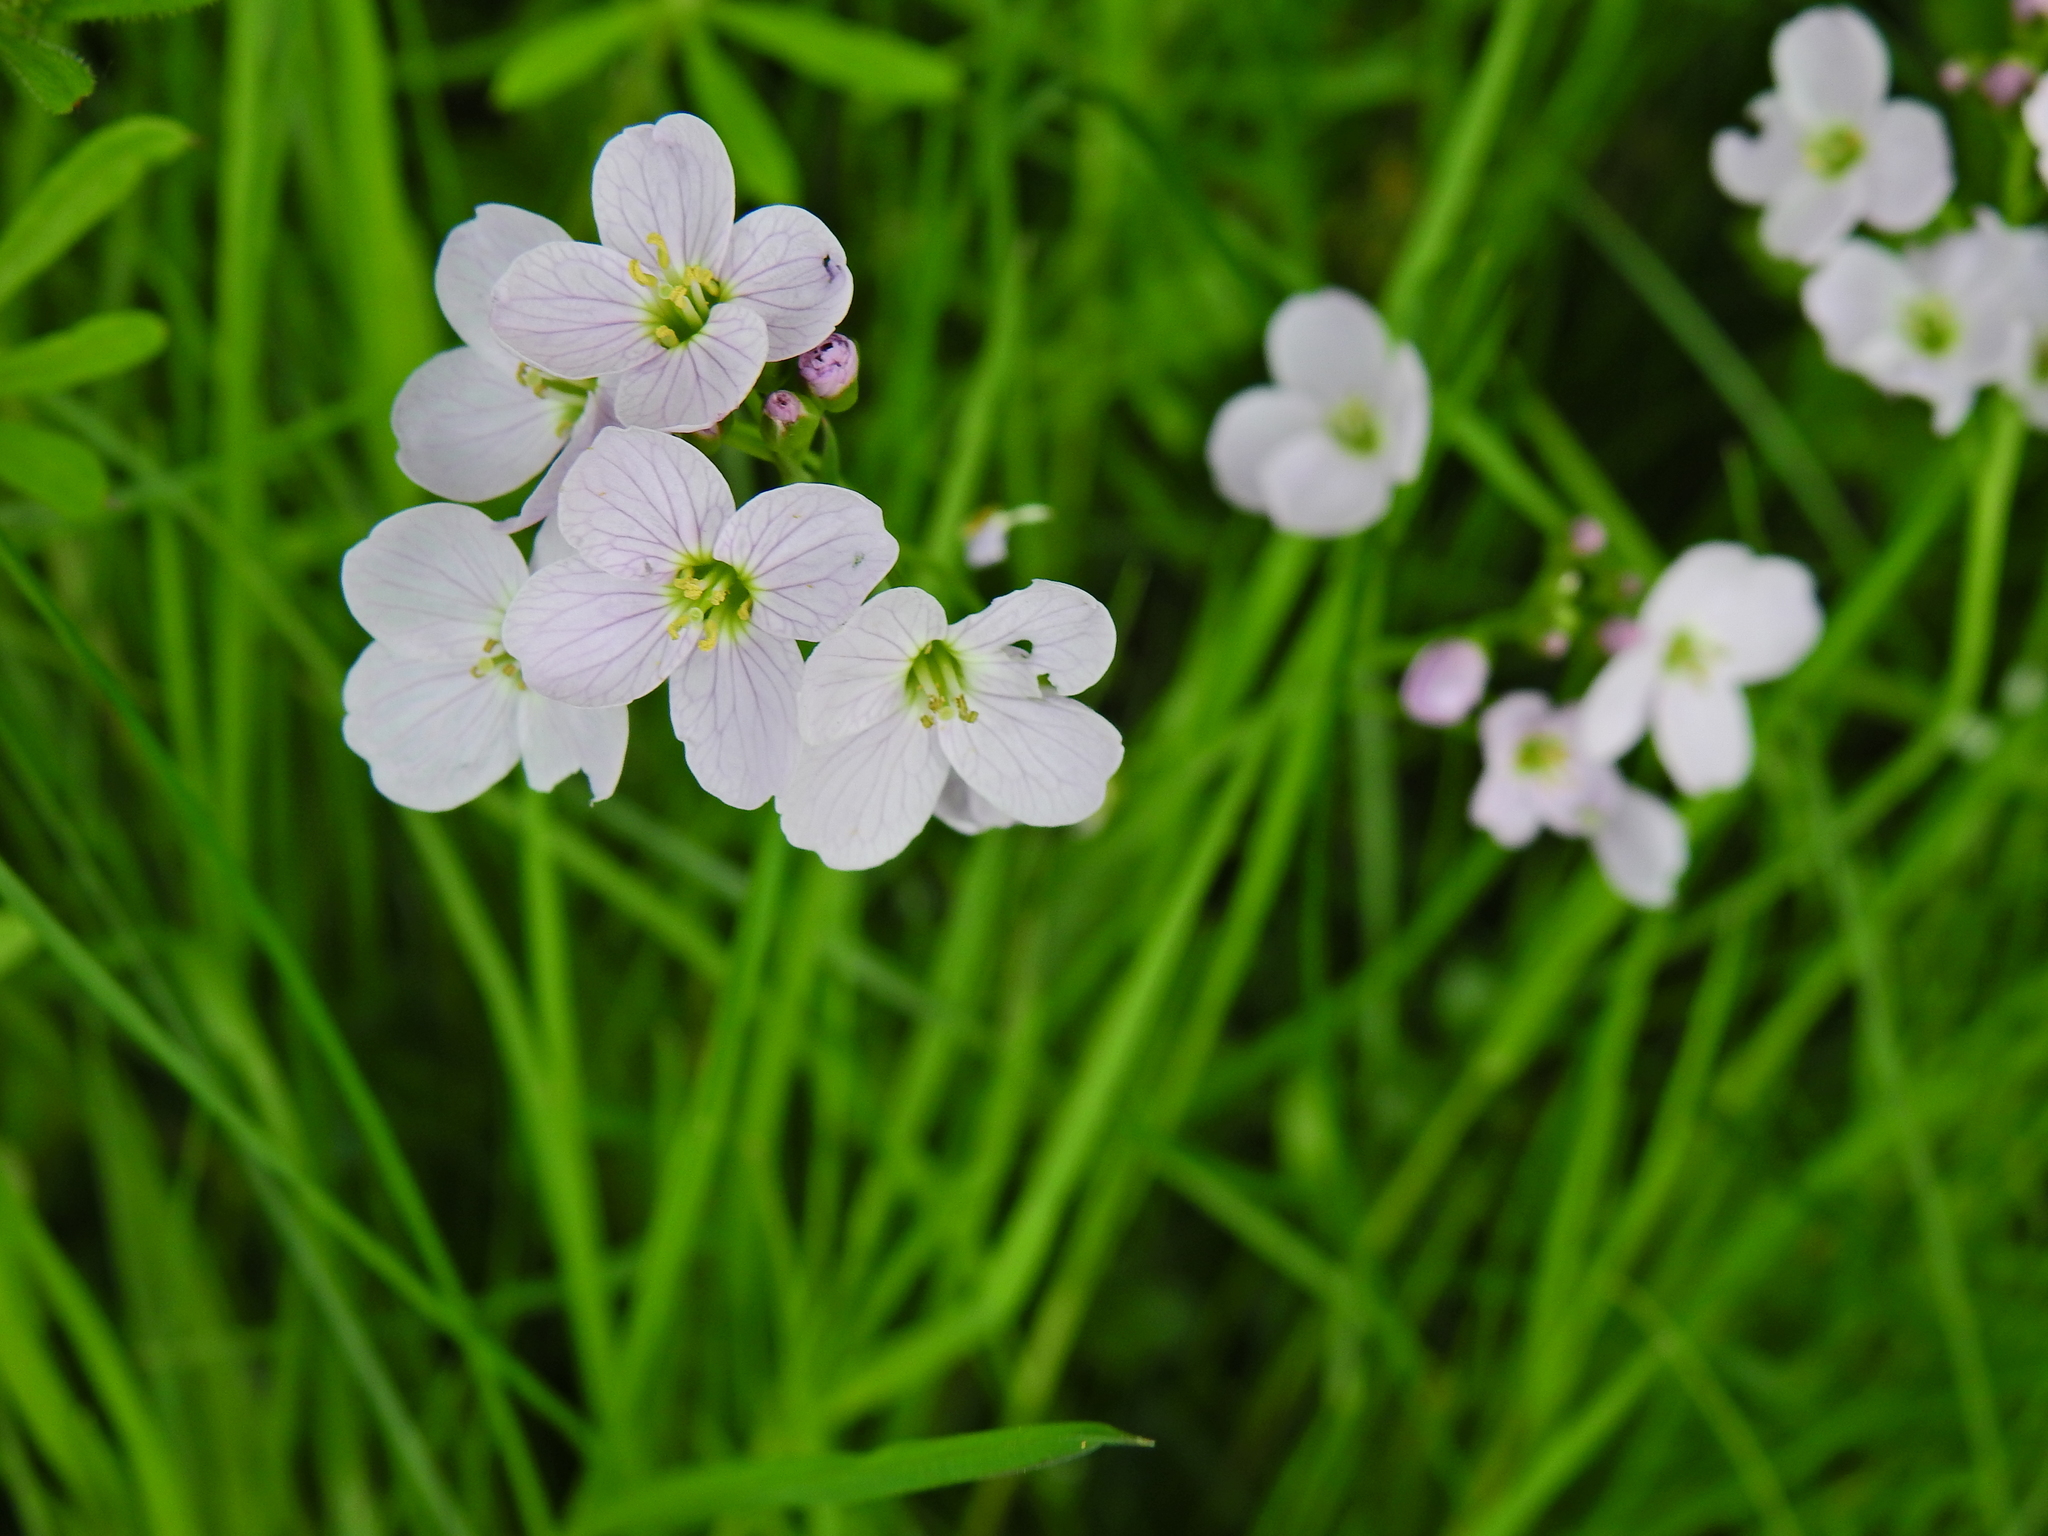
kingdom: Plantae
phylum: Tracheophyta
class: Magnoliopsida
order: Brassicales
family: Brassicaceae
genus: Cardamine
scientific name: Cardamine pratensis
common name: Cuckoo flower
